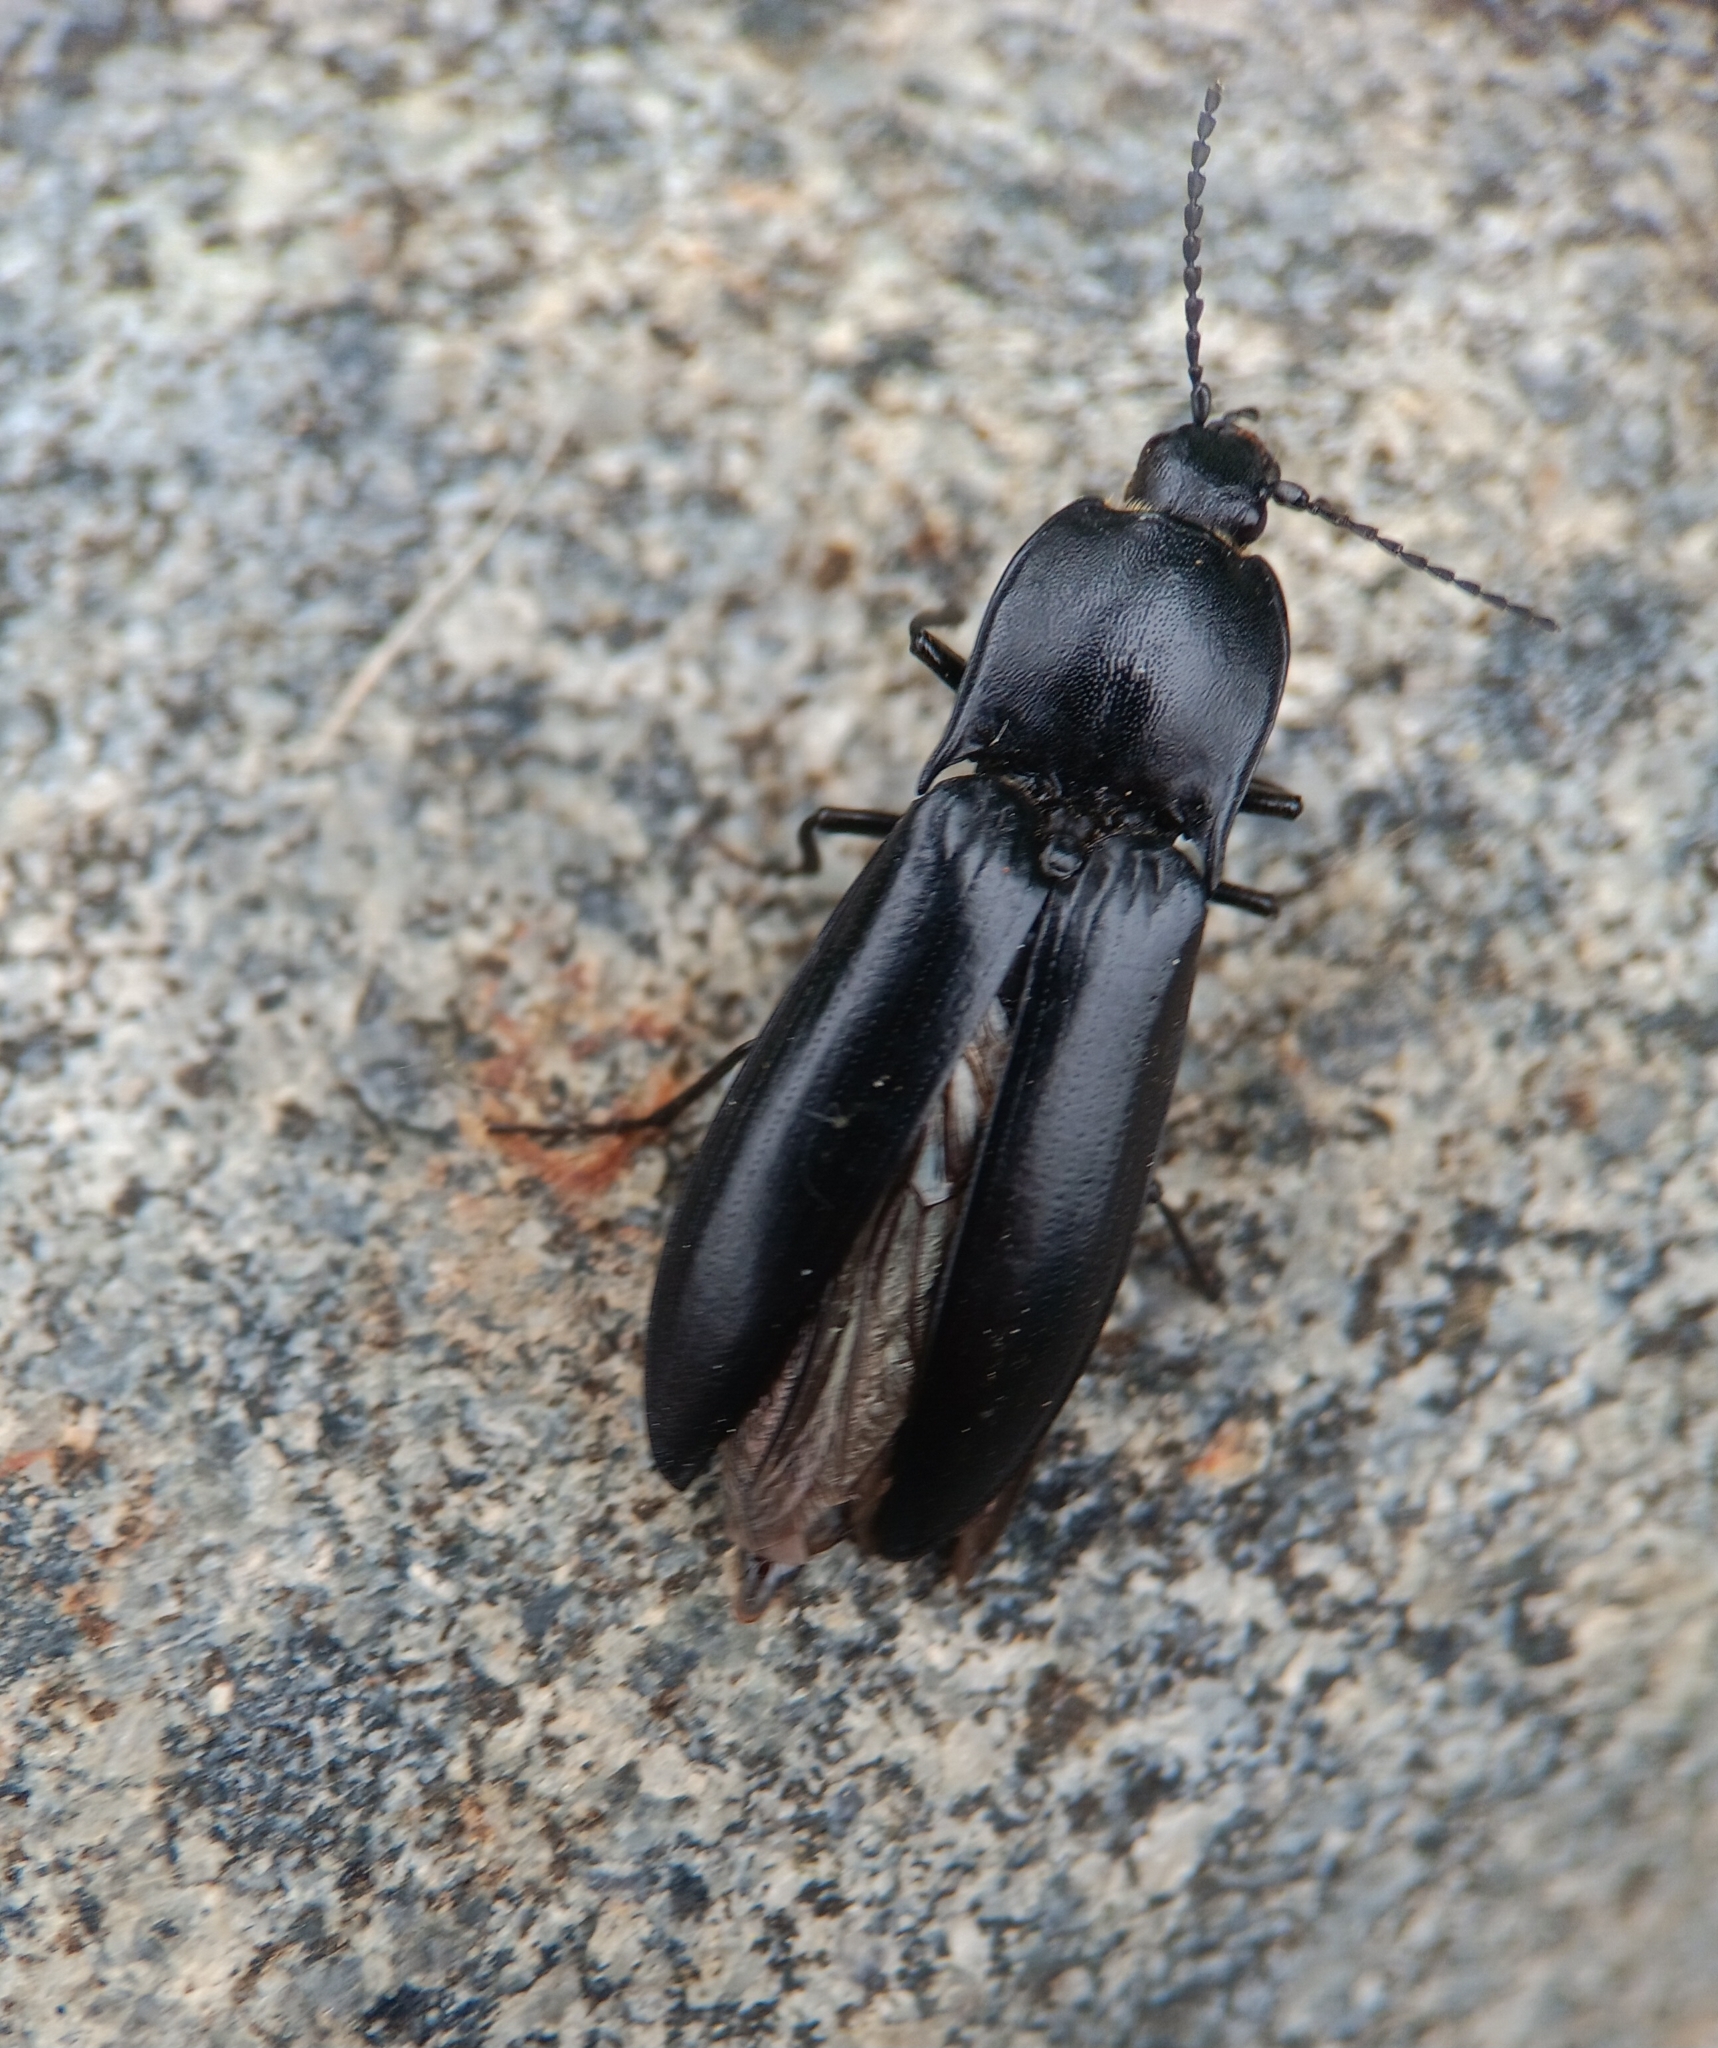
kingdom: Animalia
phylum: Arthropoda
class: Insecta
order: Coleoptera
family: Elateridae
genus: Melanactes
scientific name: Melanactes
